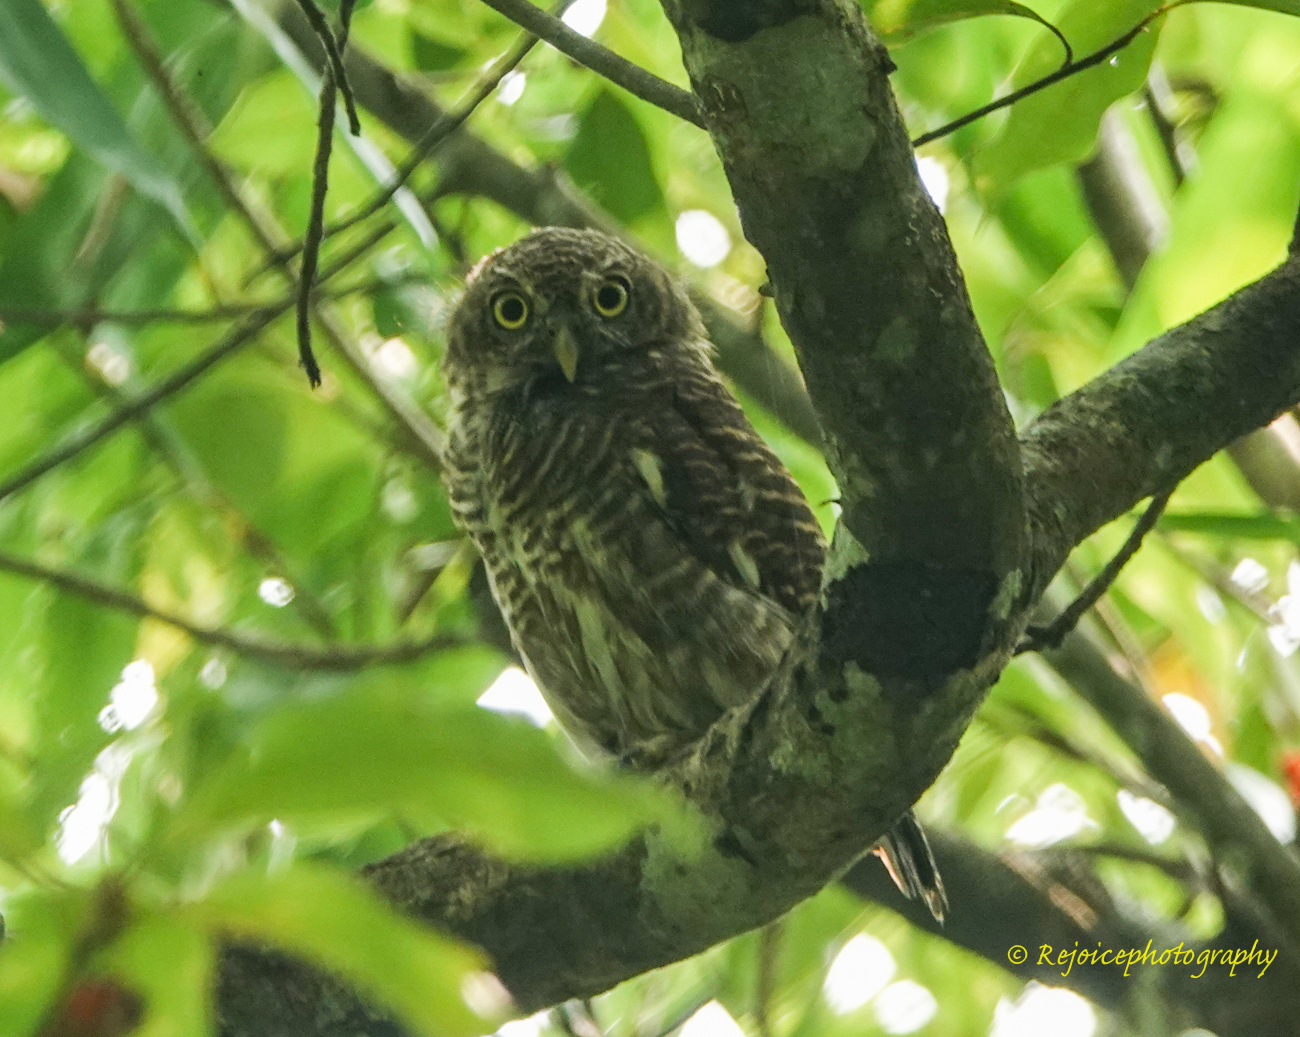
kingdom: Animalia
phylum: Chordata
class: Aves
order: Strigiformes
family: Strigidae
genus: Glaucidium
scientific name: Glaucidium cuculoides
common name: Asian barred owlet
